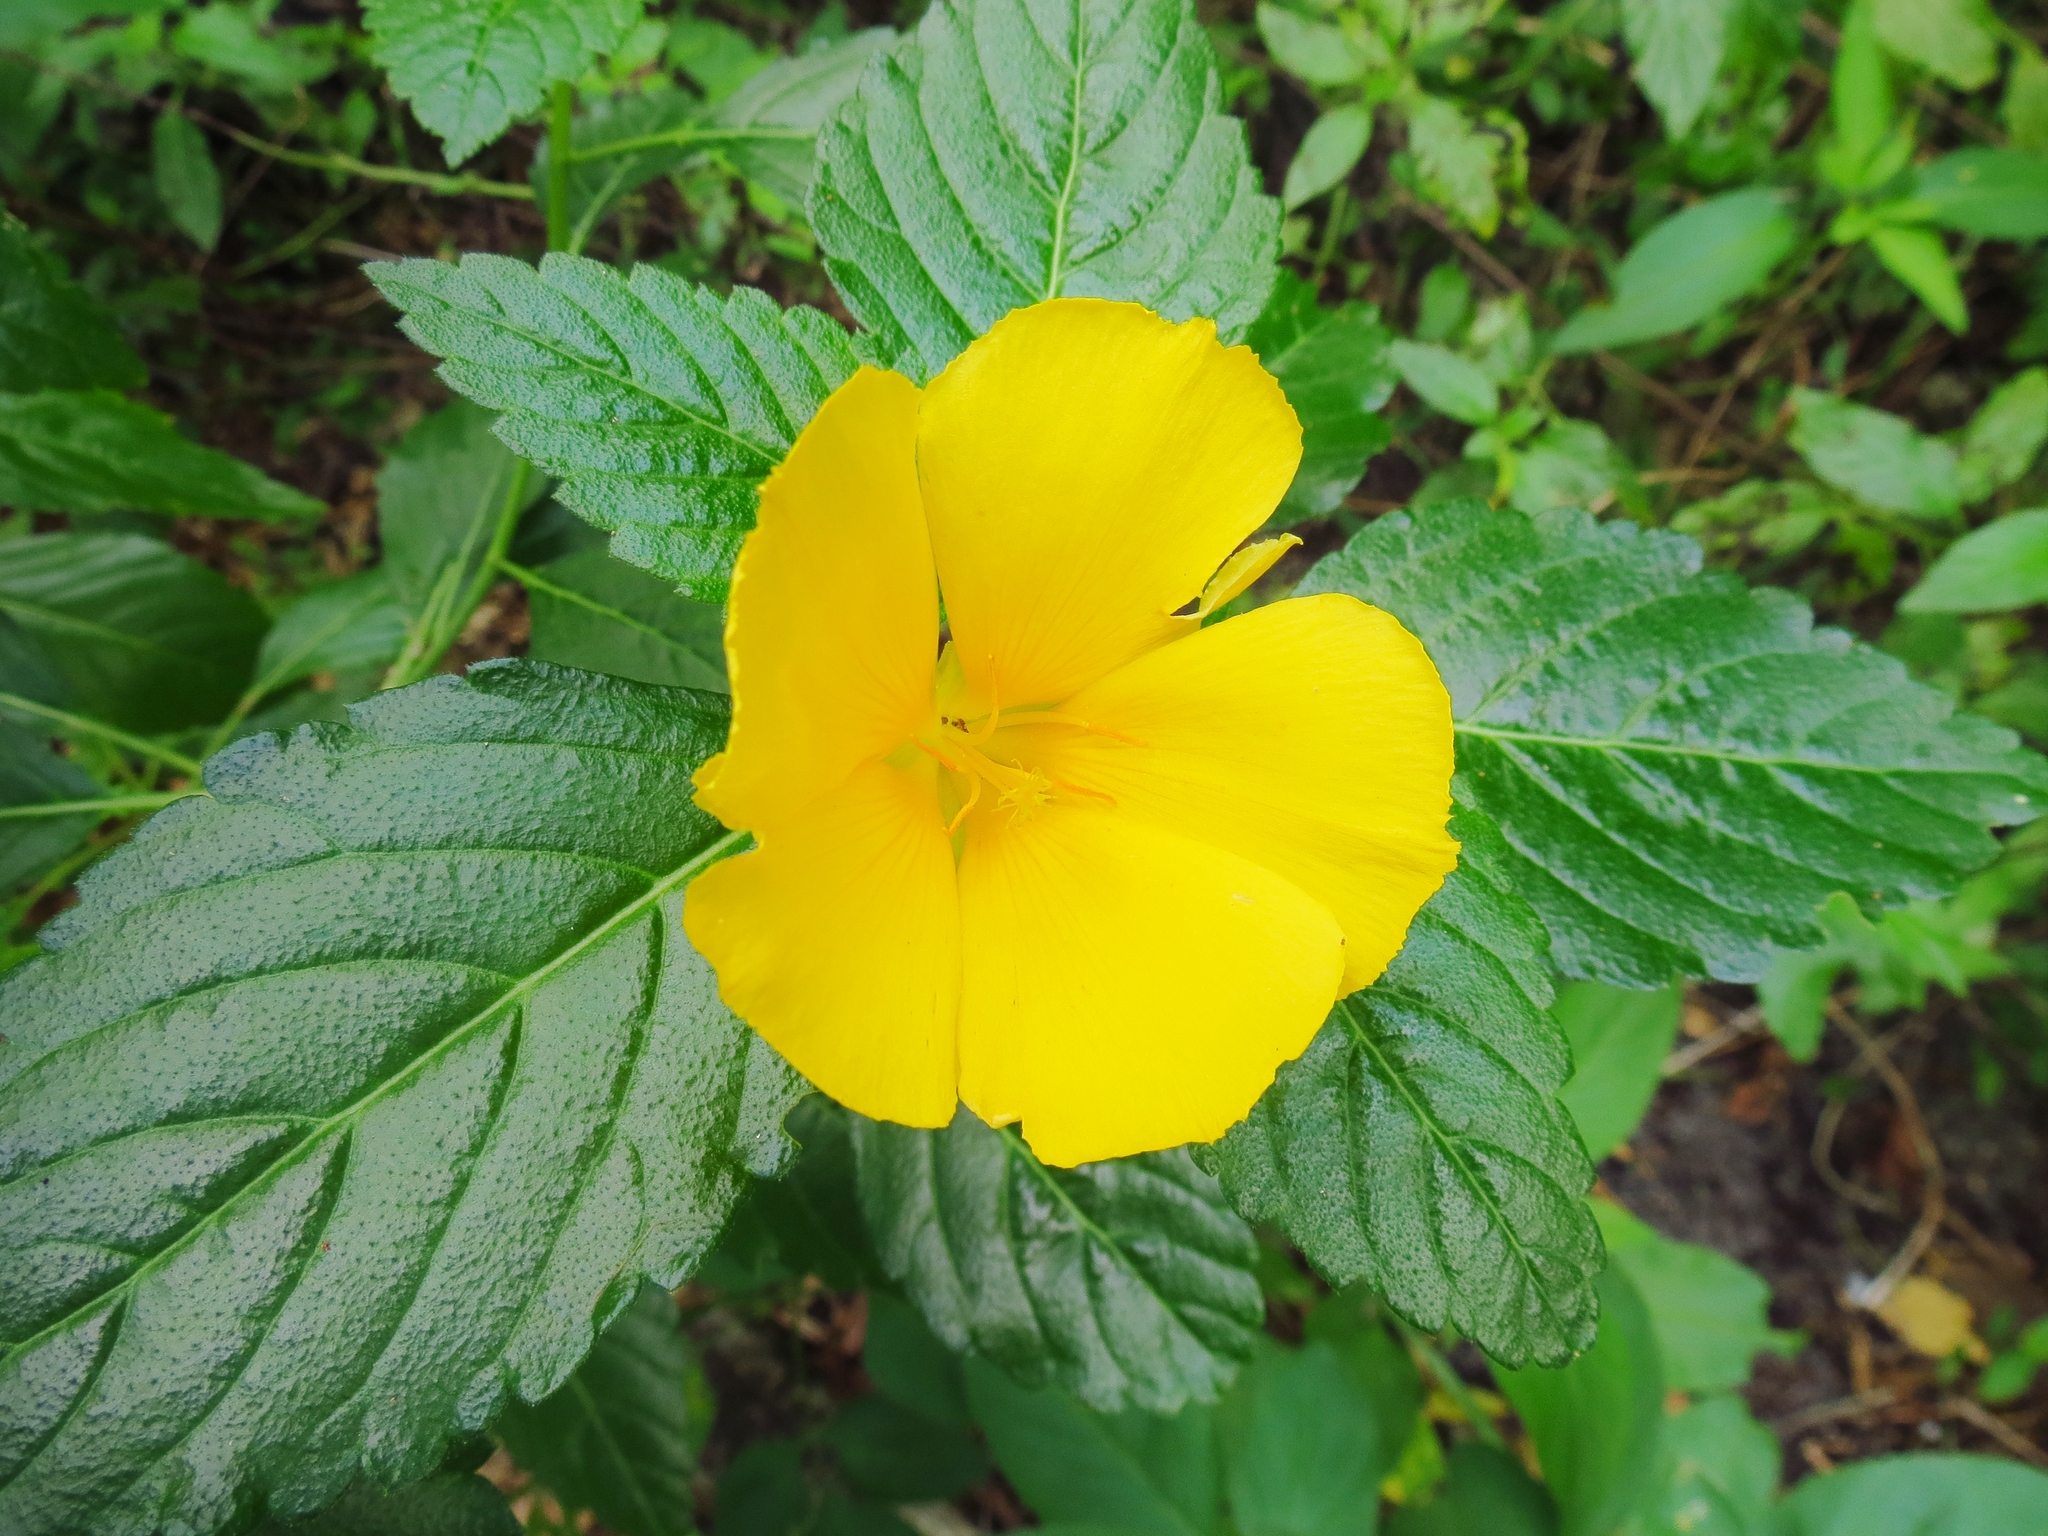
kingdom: Plantae
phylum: Tracheophyta
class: Magnoliopsida
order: Malpighiales
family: Turneraceae
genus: Turnera
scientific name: Turnera ulmifolia
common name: Ramgoat dashalong
